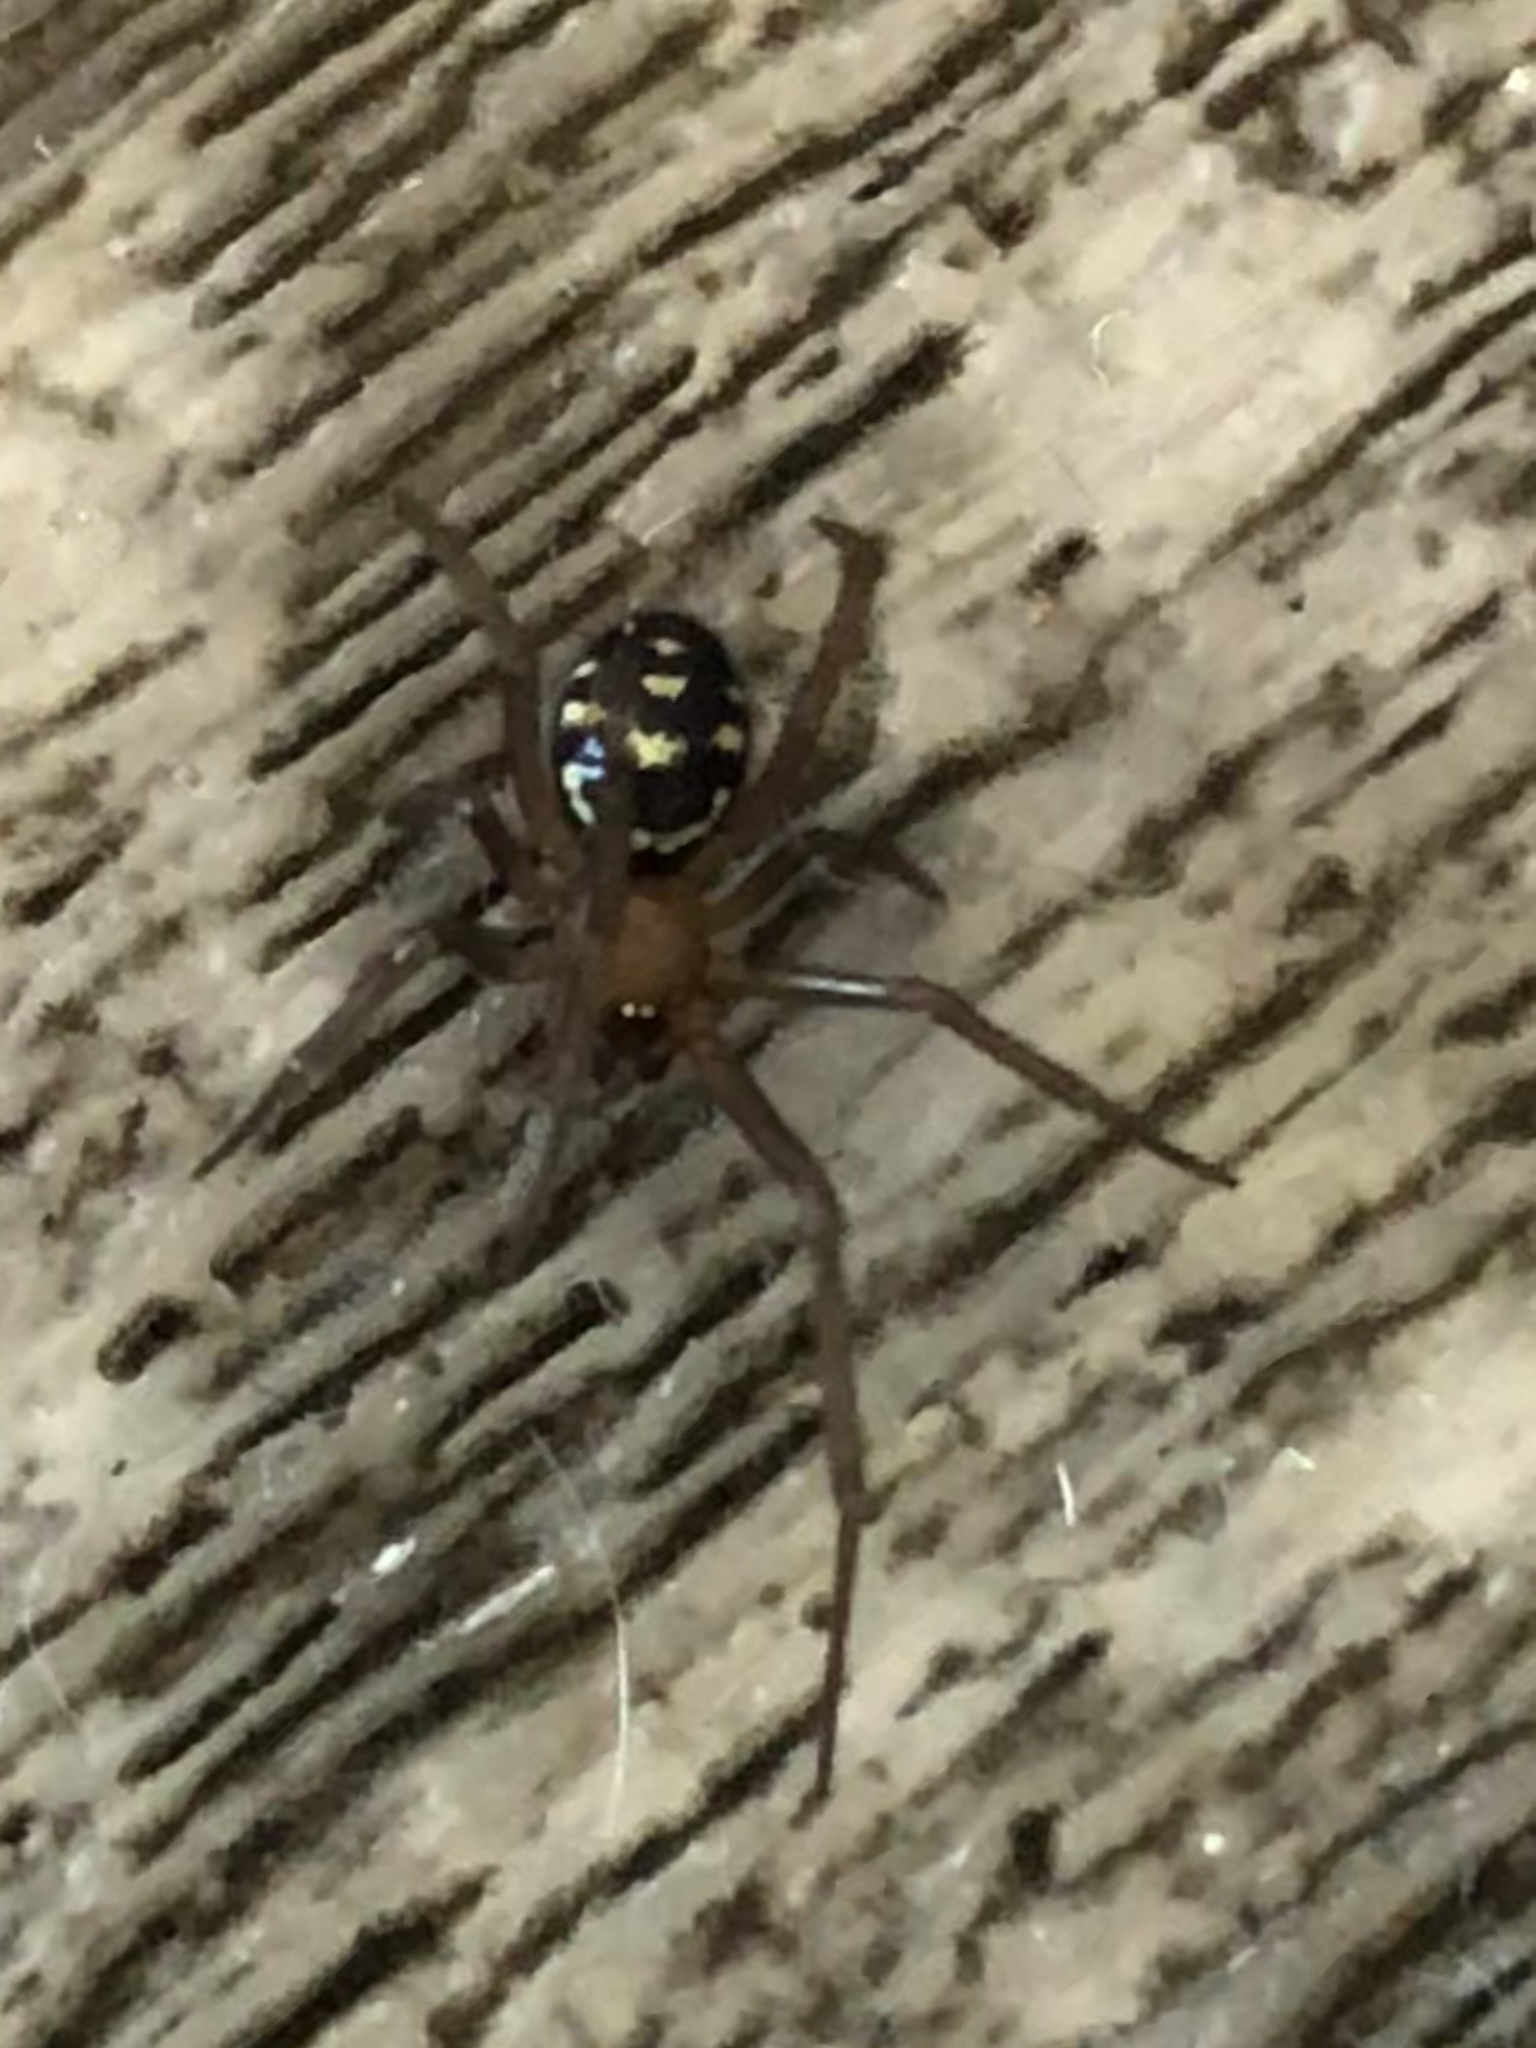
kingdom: Animalia
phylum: Arthropoda
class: Arachnida
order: Araneae
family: Theridiidae
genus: Steatoda
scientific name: Steatoda grossa
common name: False black widow
